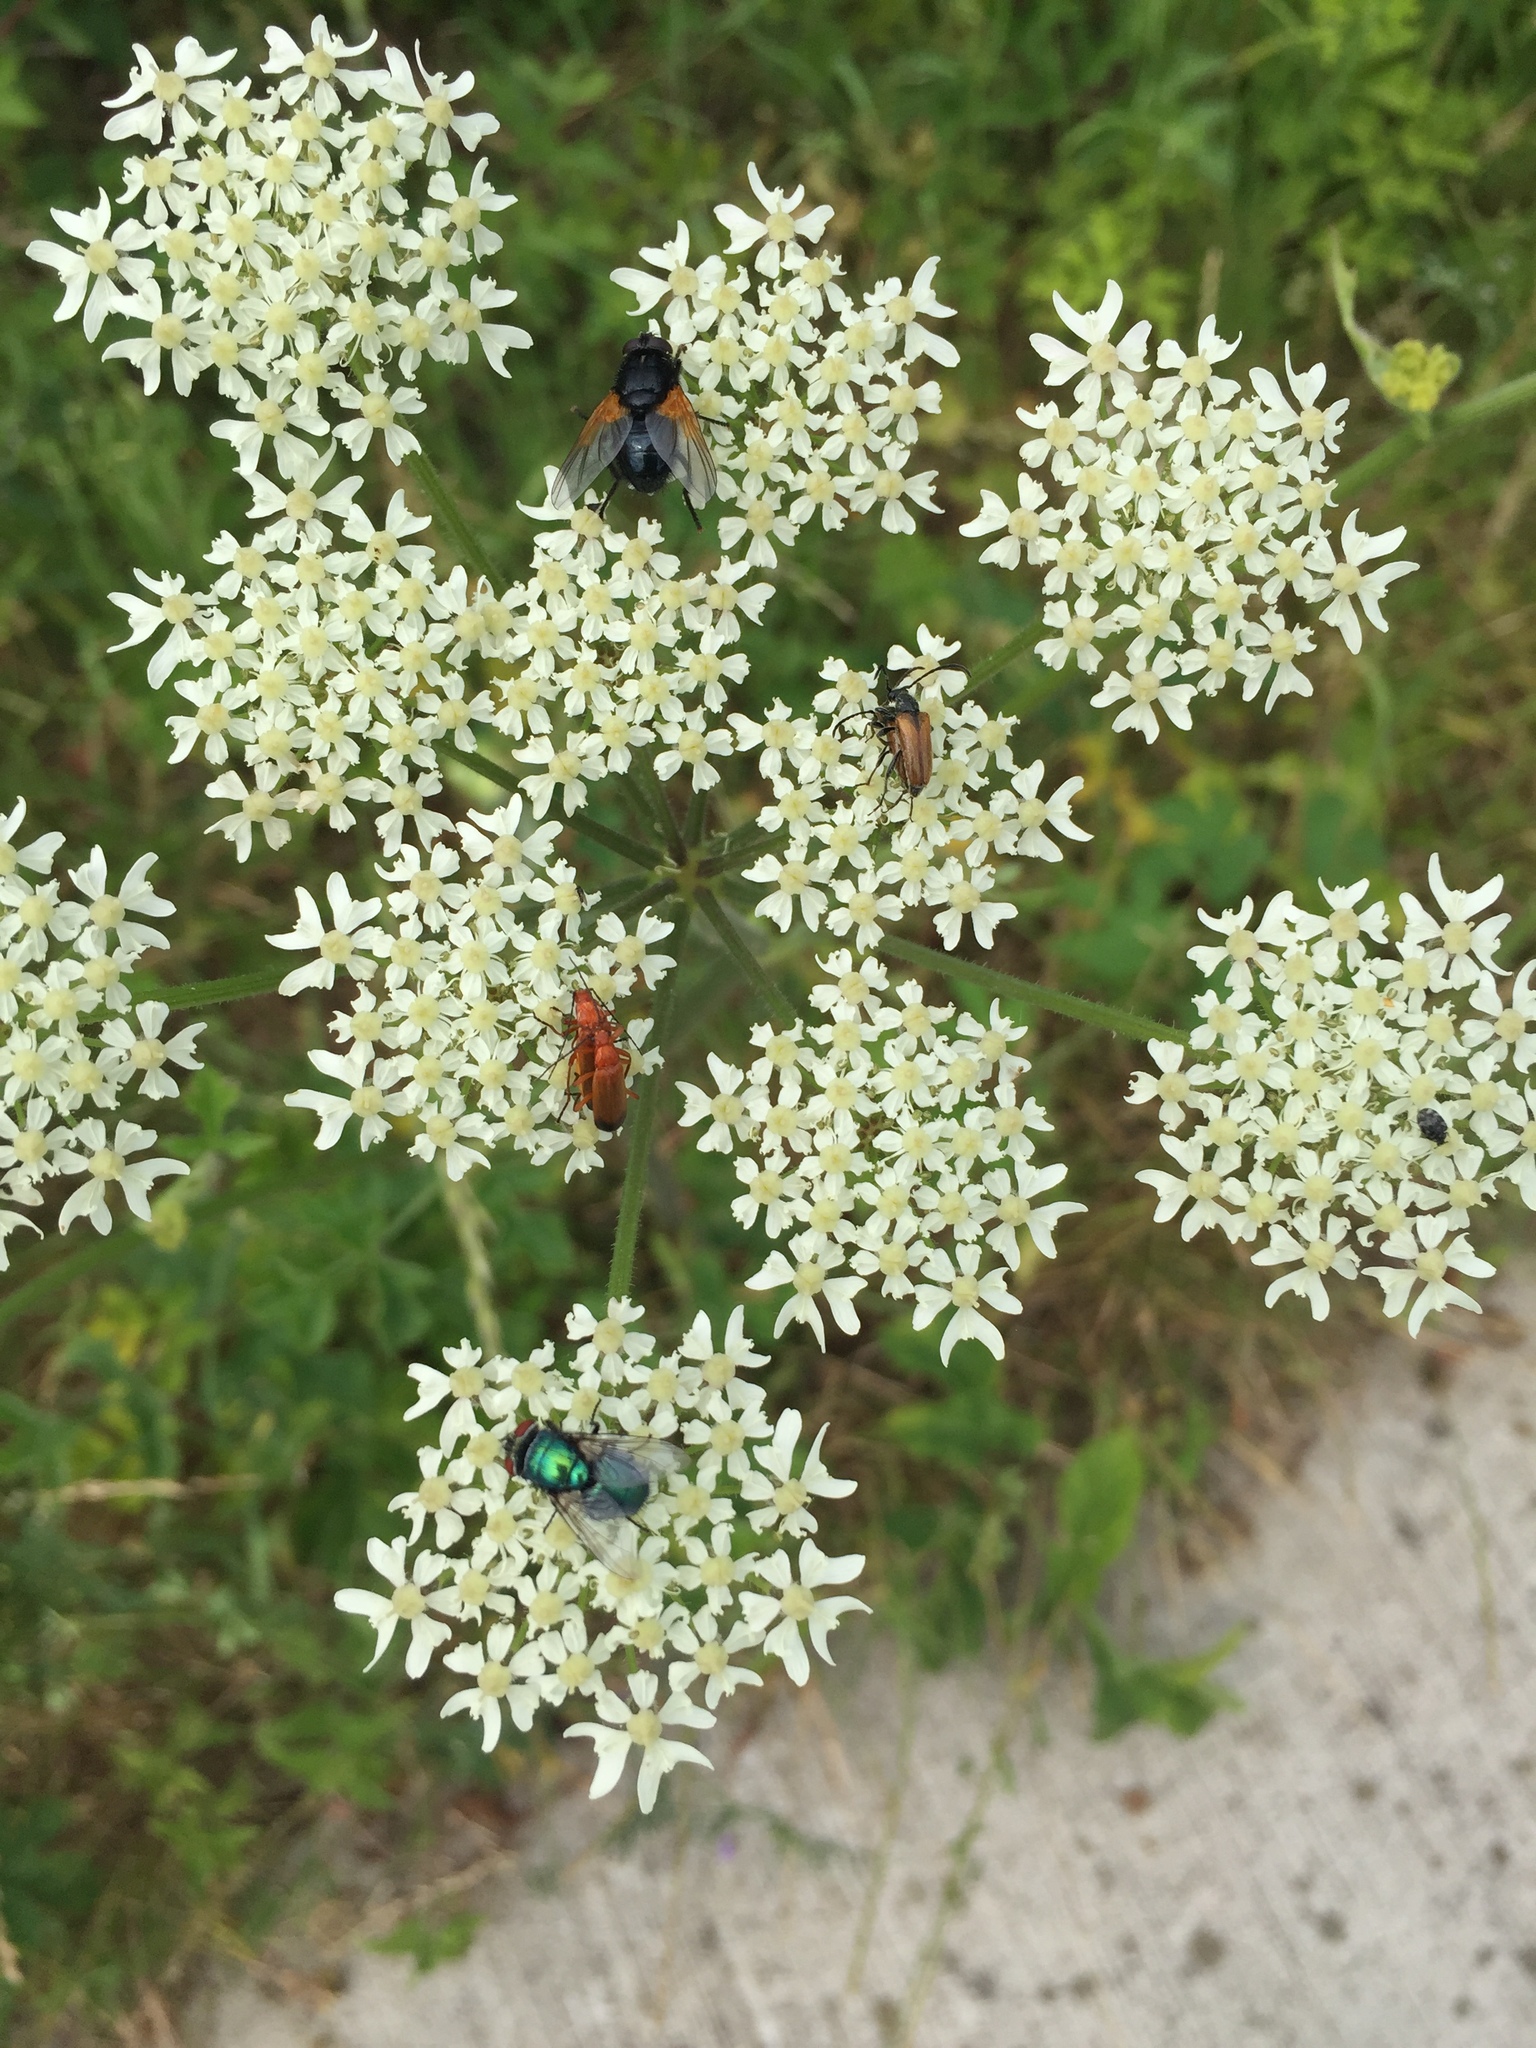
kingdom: Animalia
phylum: Arthropoda
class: Insecta
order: Diptera
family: Muscidae
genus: Mesembrina
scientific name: Mesembrina meridiana
